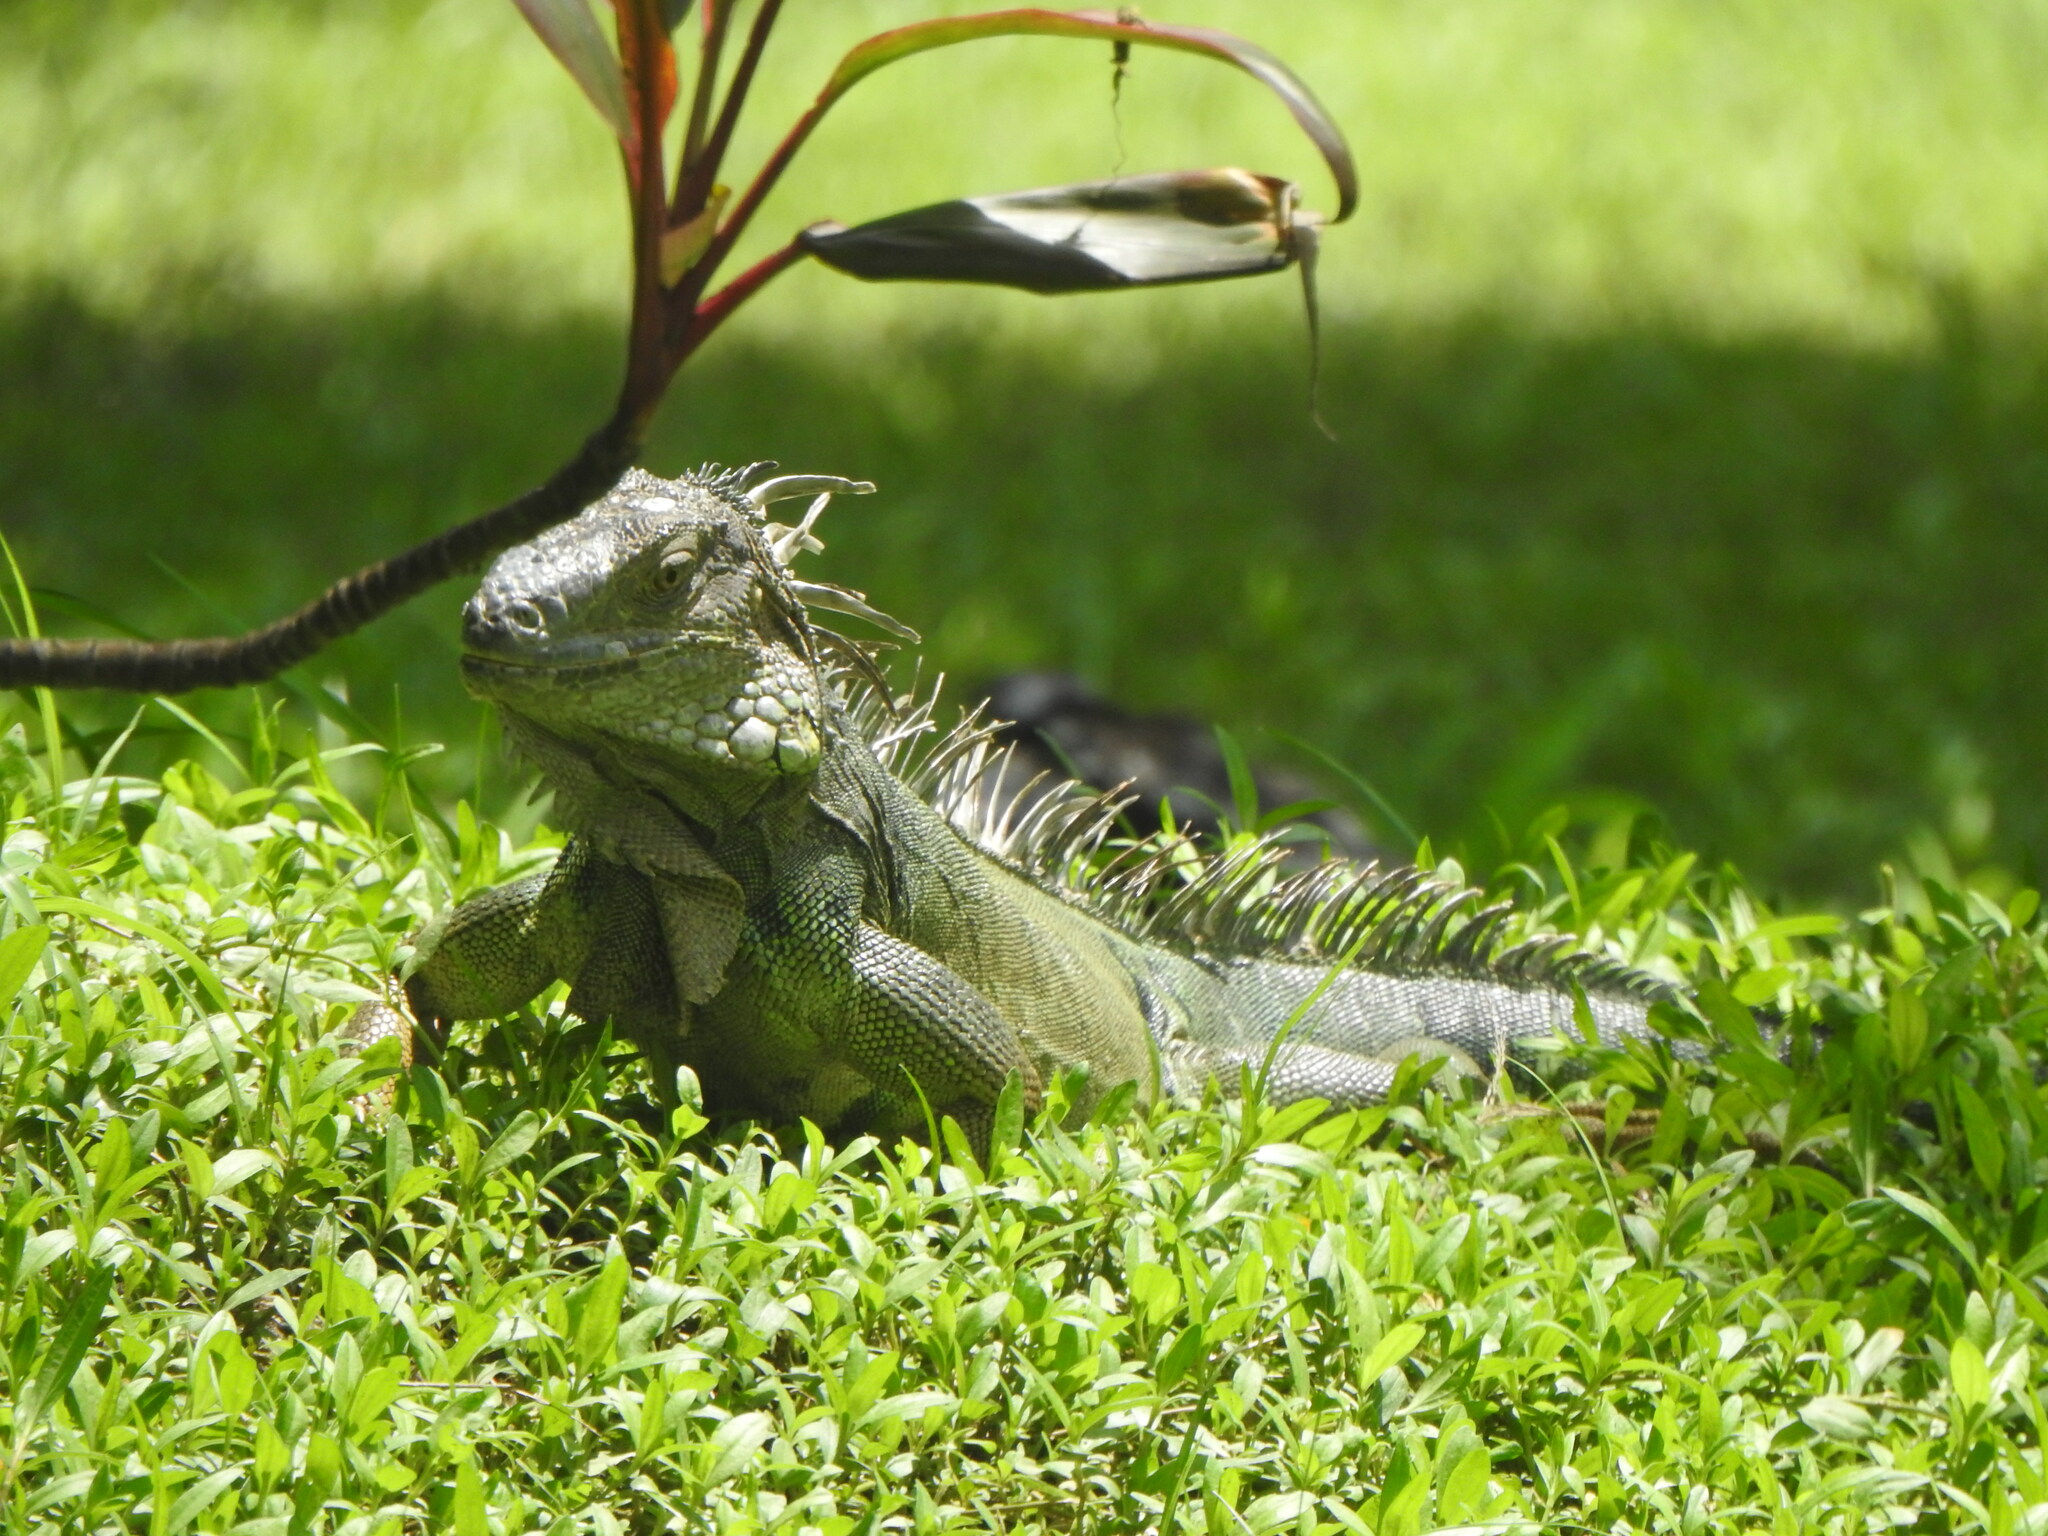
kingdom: Animalia
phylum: Chordata
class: Squamata
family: Iguanidae
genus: Iguana
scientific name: Iguana iguana
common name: Green iguana
